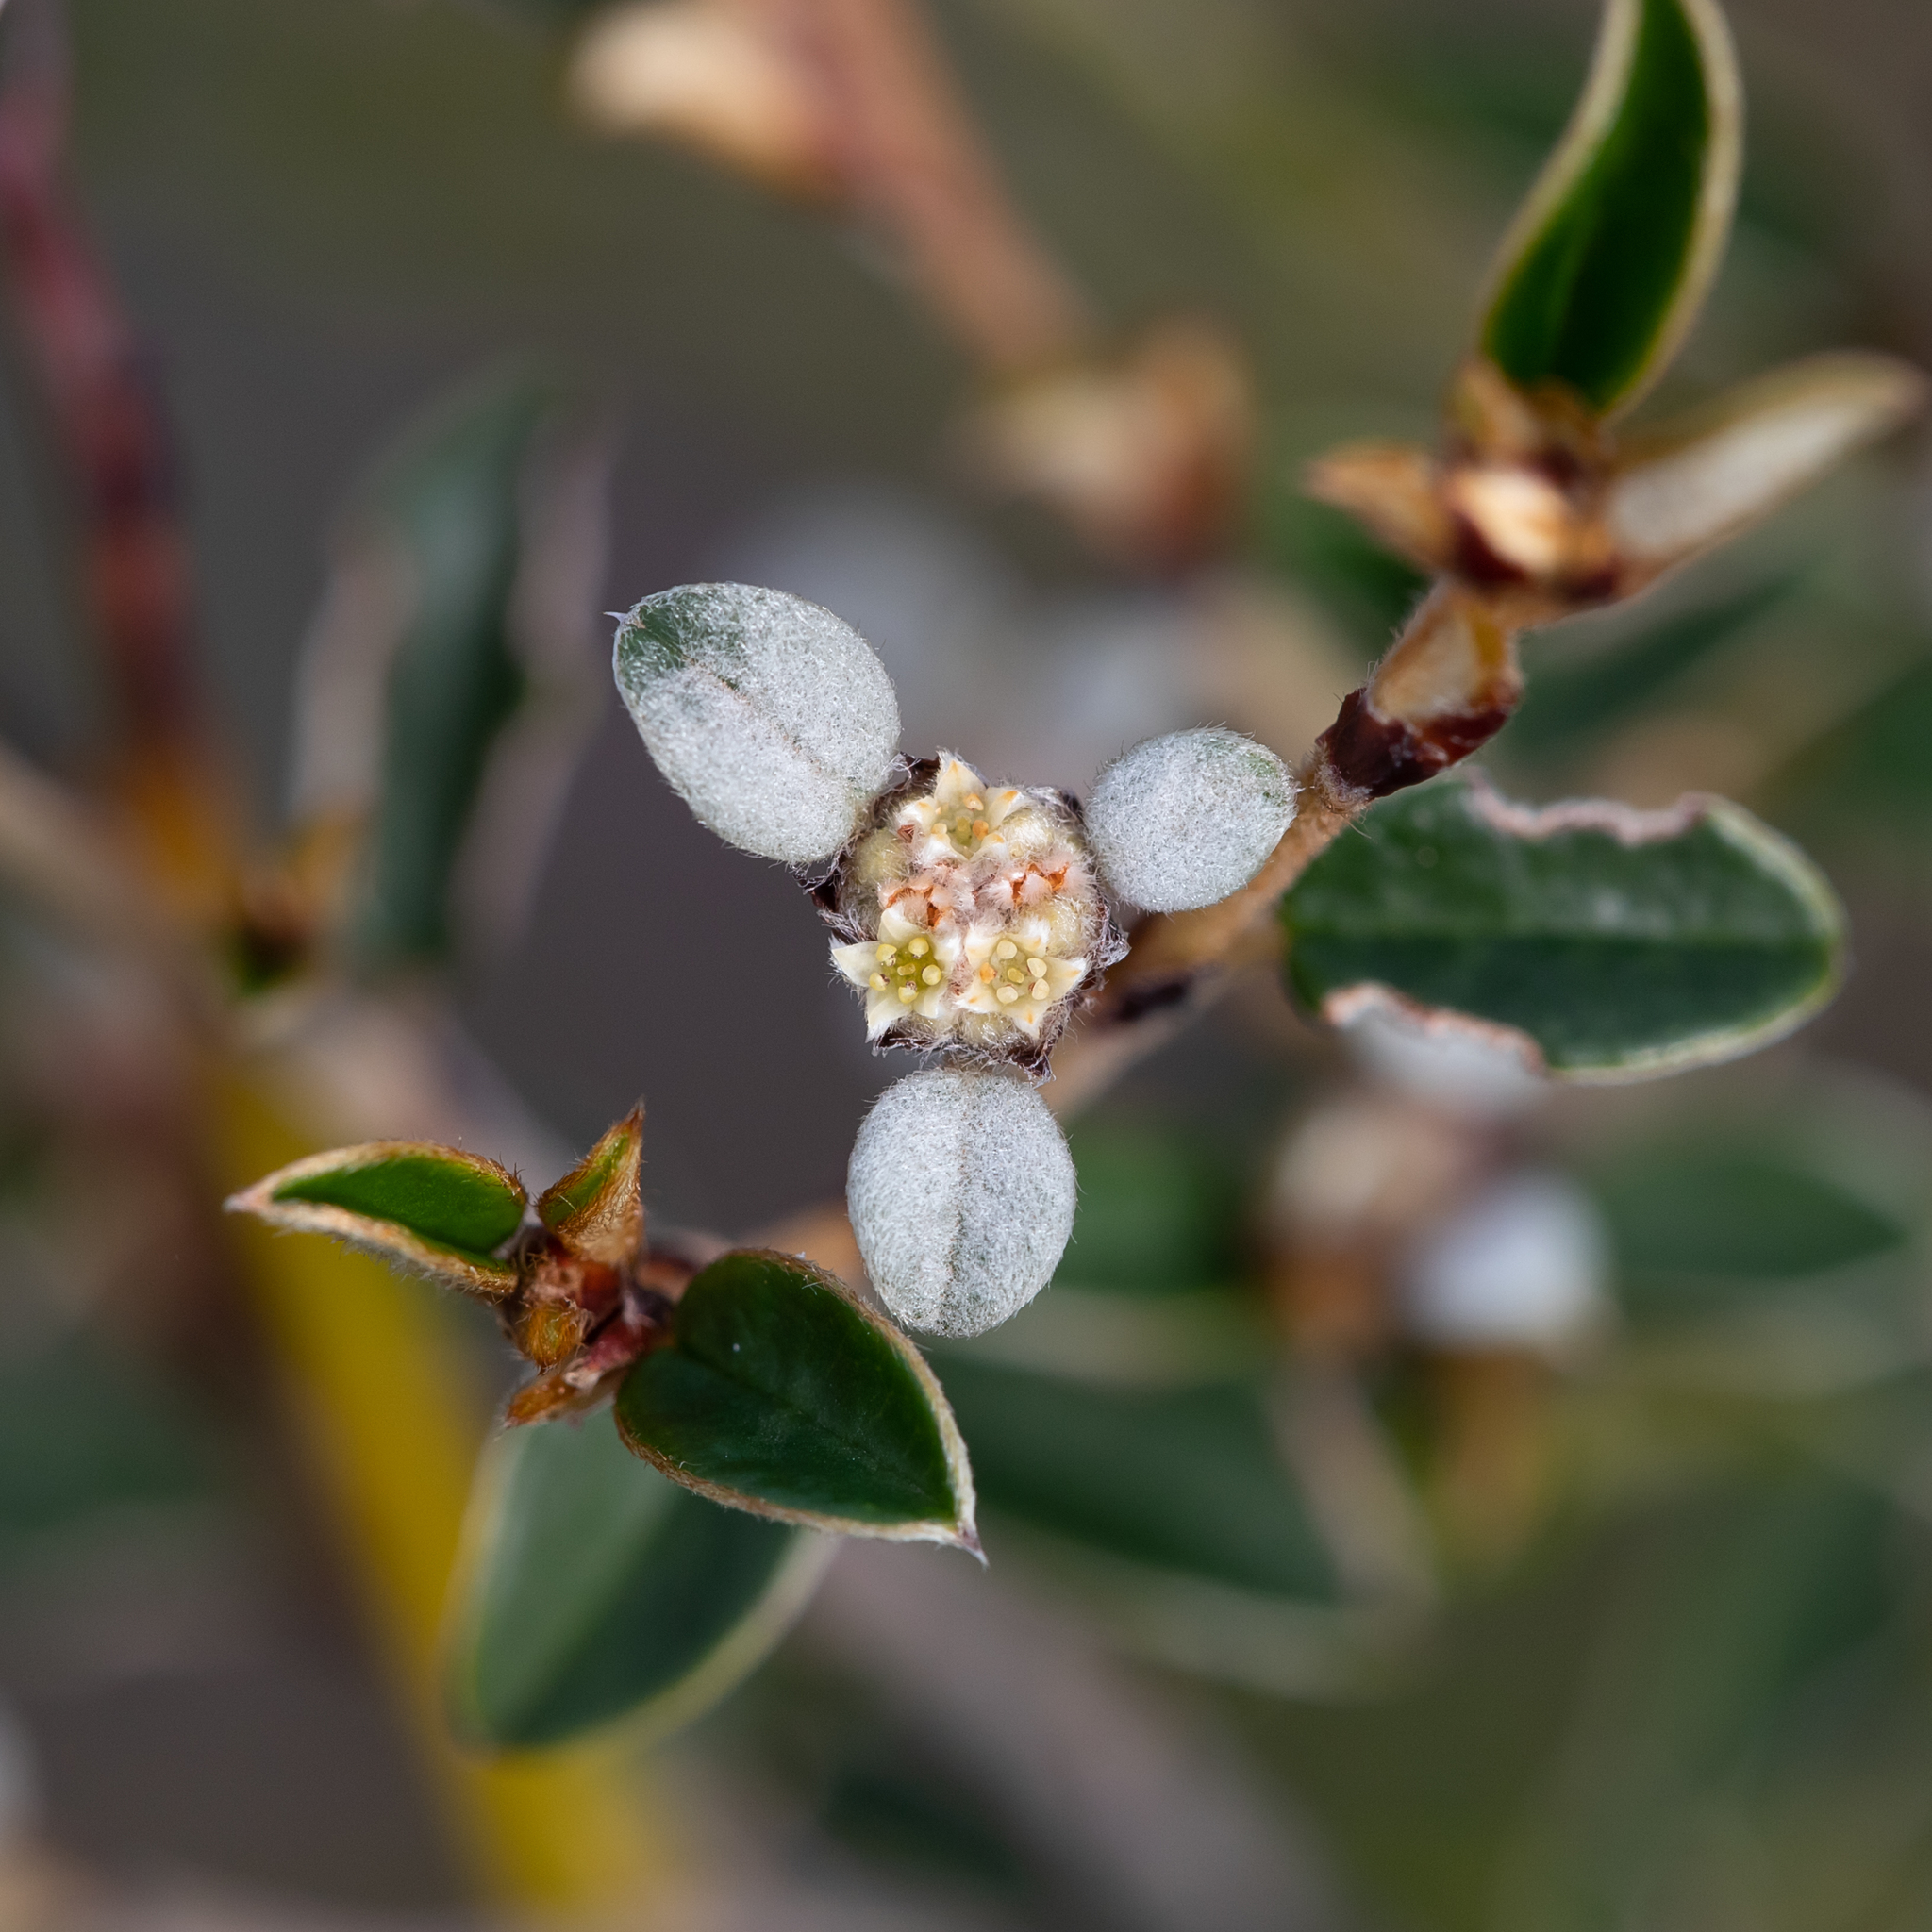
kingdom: Plantae
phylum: Tracheophyta
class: Magnoliopsida
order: Rosales
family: Rhamnaceae
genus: Spyridium
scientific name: Spyridium thymifolium
